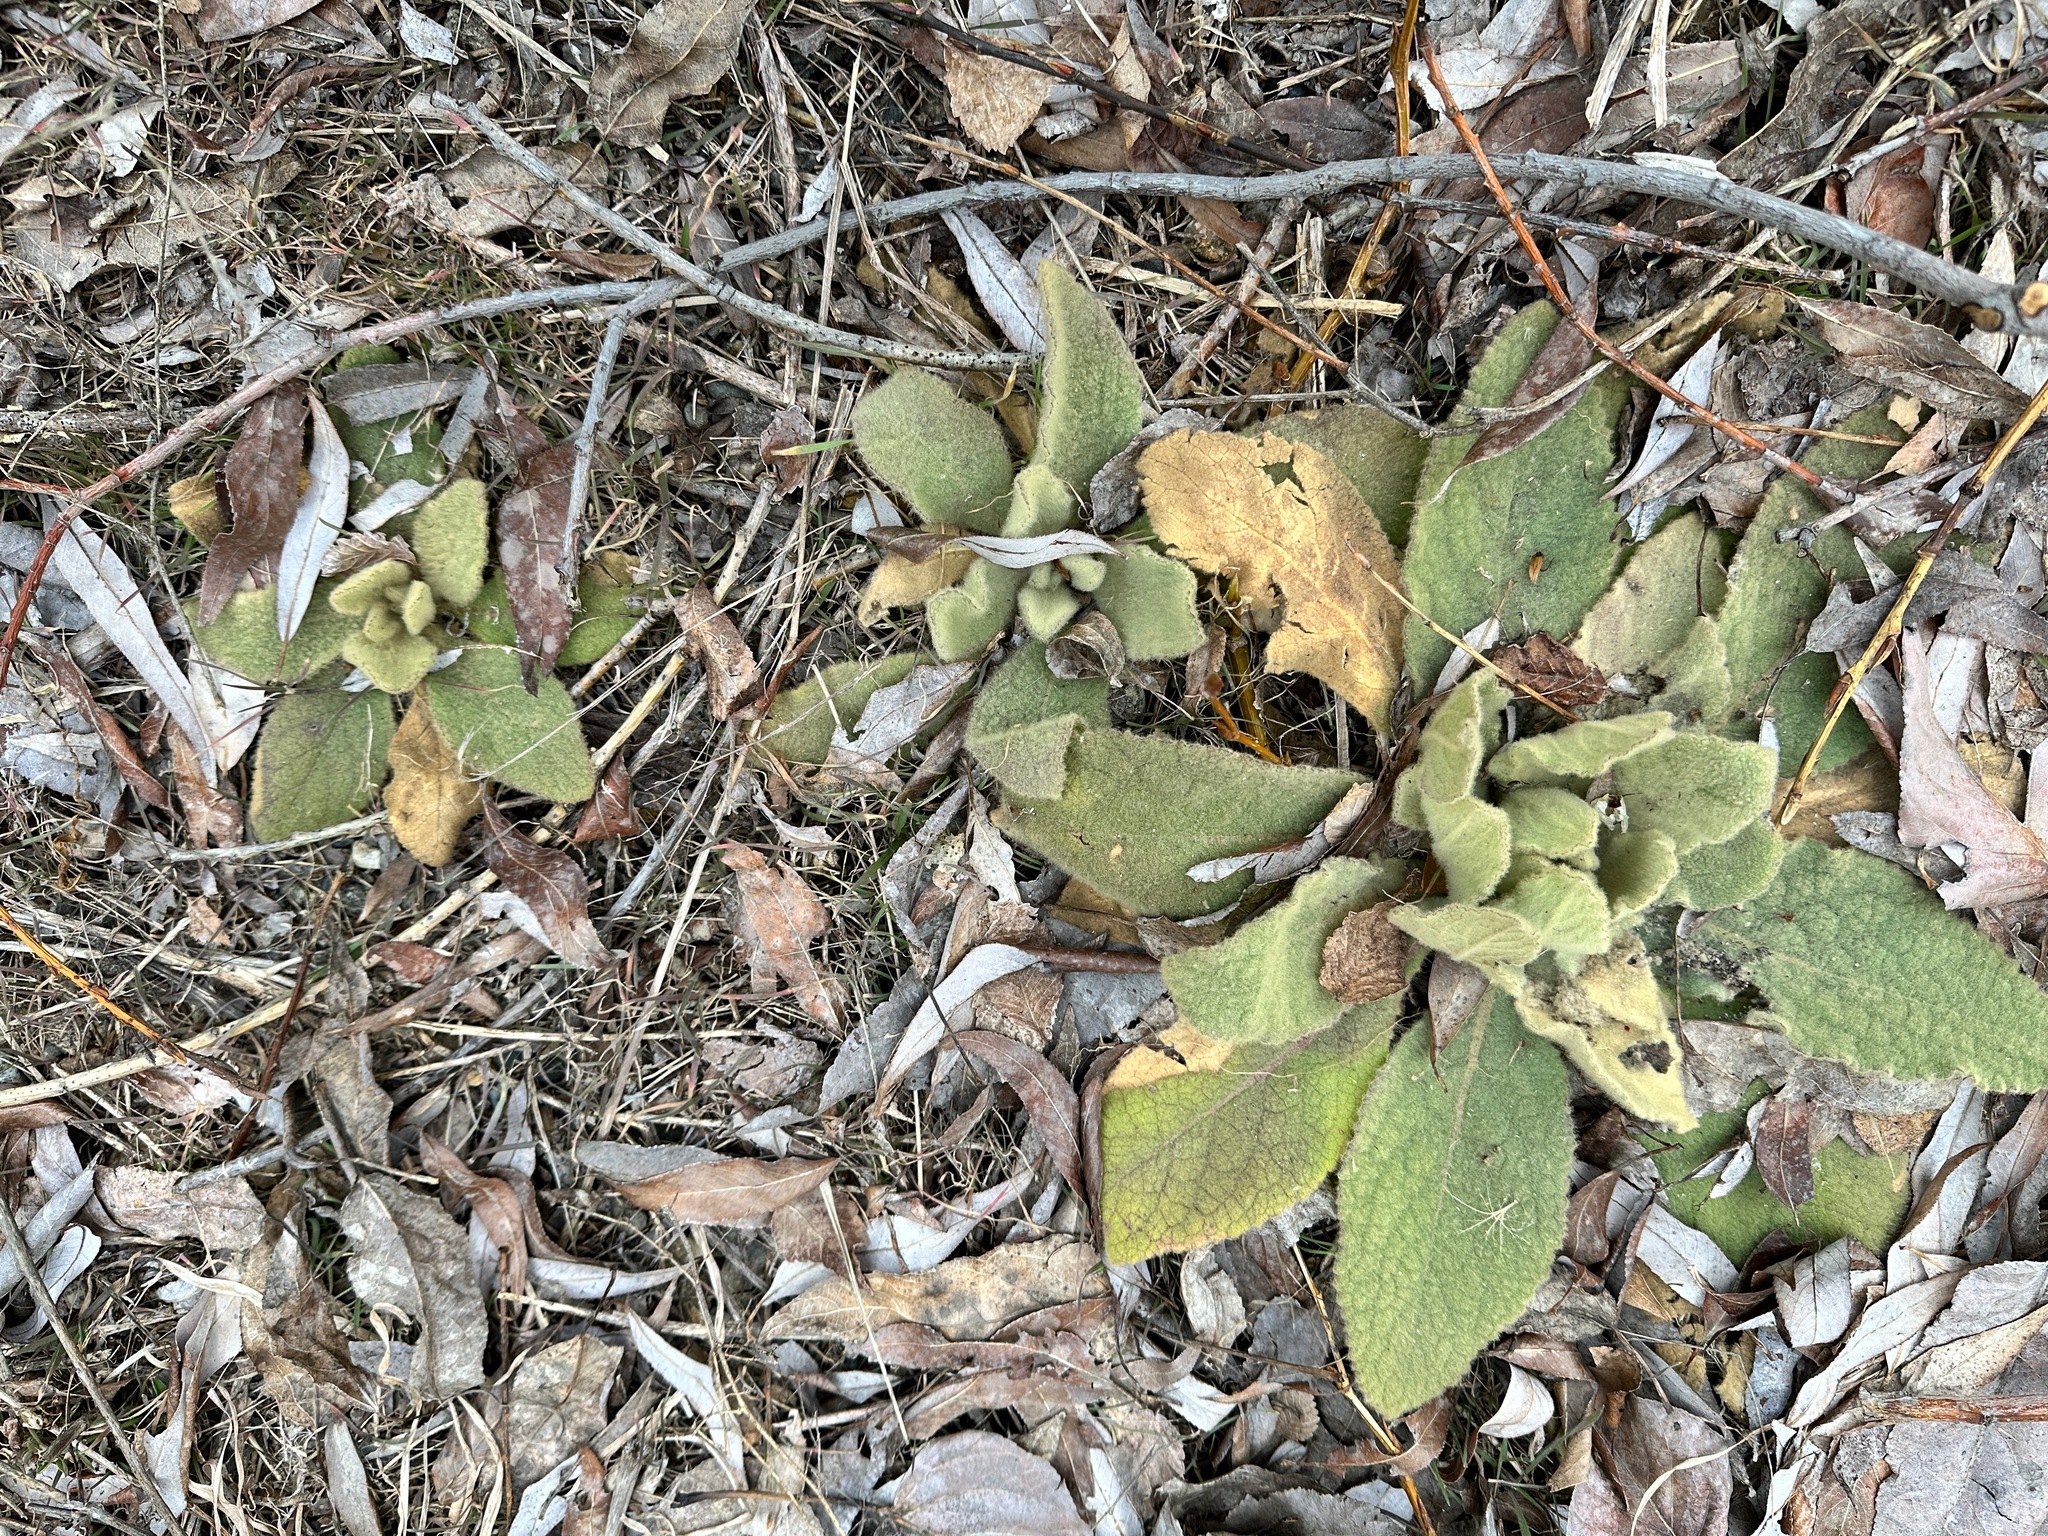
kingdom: Plantae
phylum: Tracheophyta
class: Magnoliopsida
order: Lamiales
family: Scrophulariaceae
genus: Verbascum
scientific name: Verbascum thapsus
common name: Common mullein
